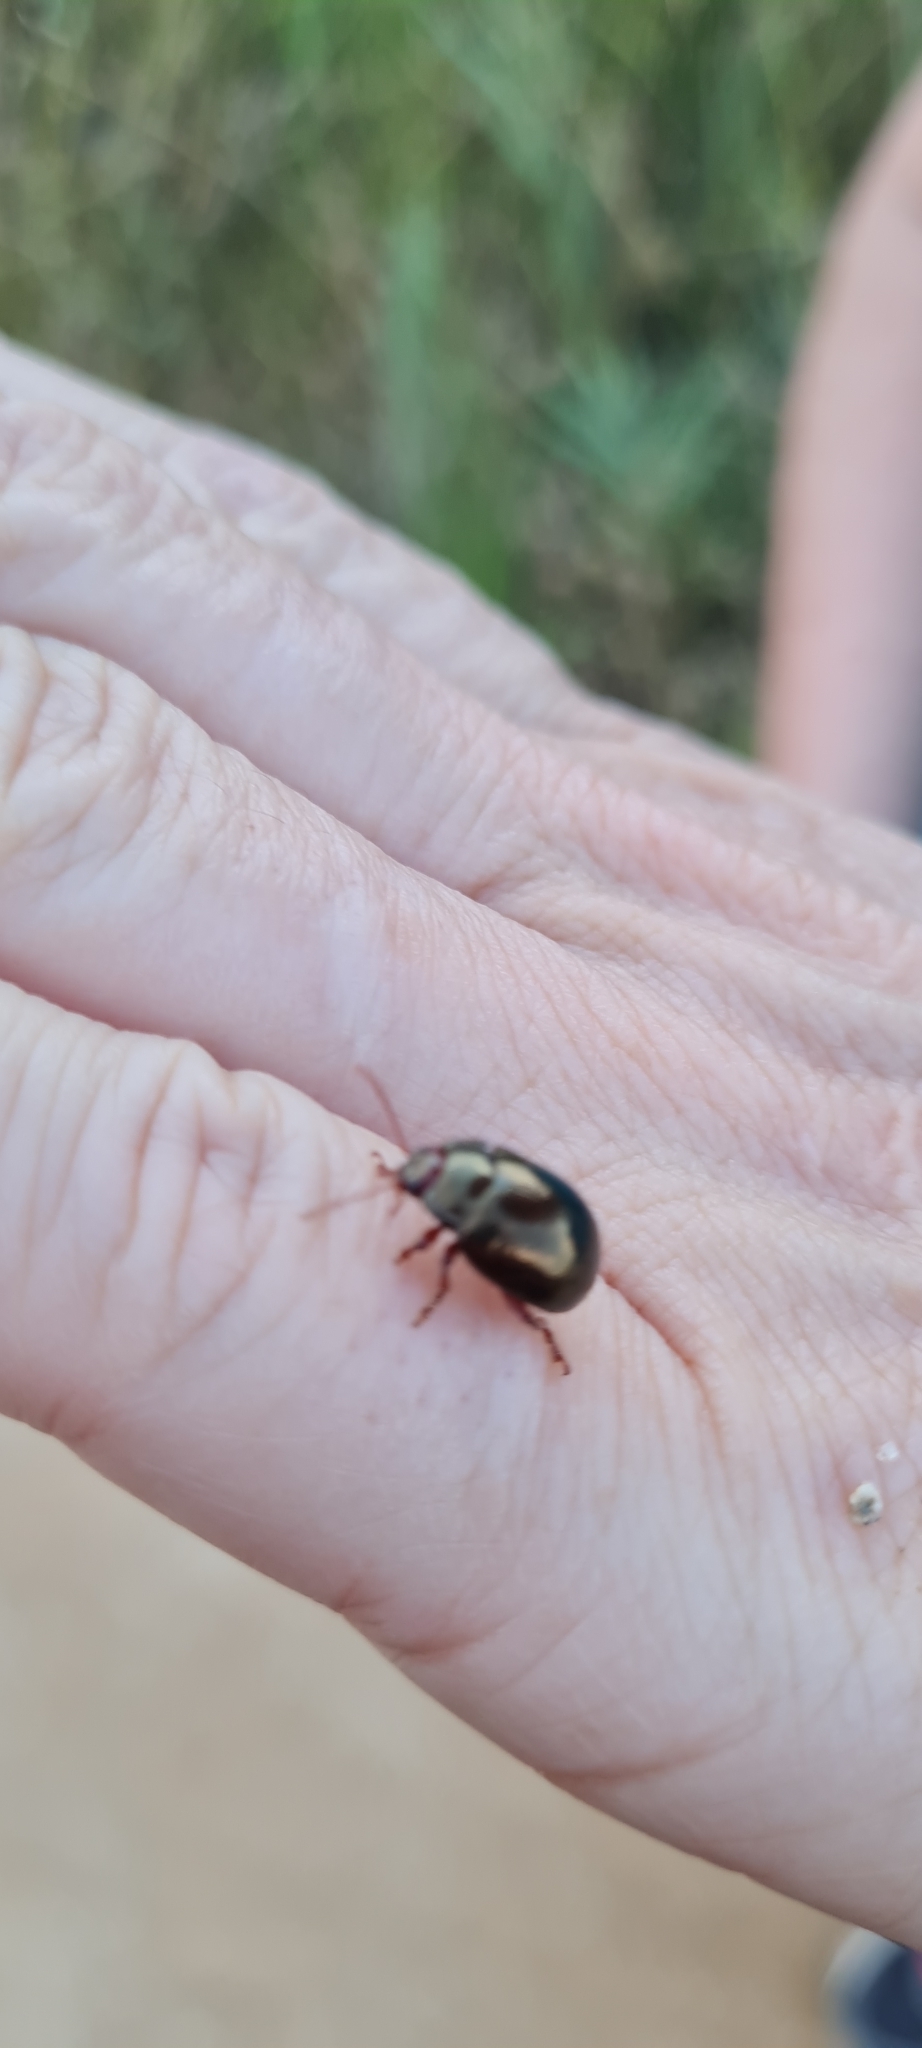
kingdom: Animalia
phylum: Arthropoda
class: Insecta
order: Coleoptera
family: Chrysomelidae
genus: Chrysolina
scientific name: Chrysolina bankii
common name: Leaf beetle
